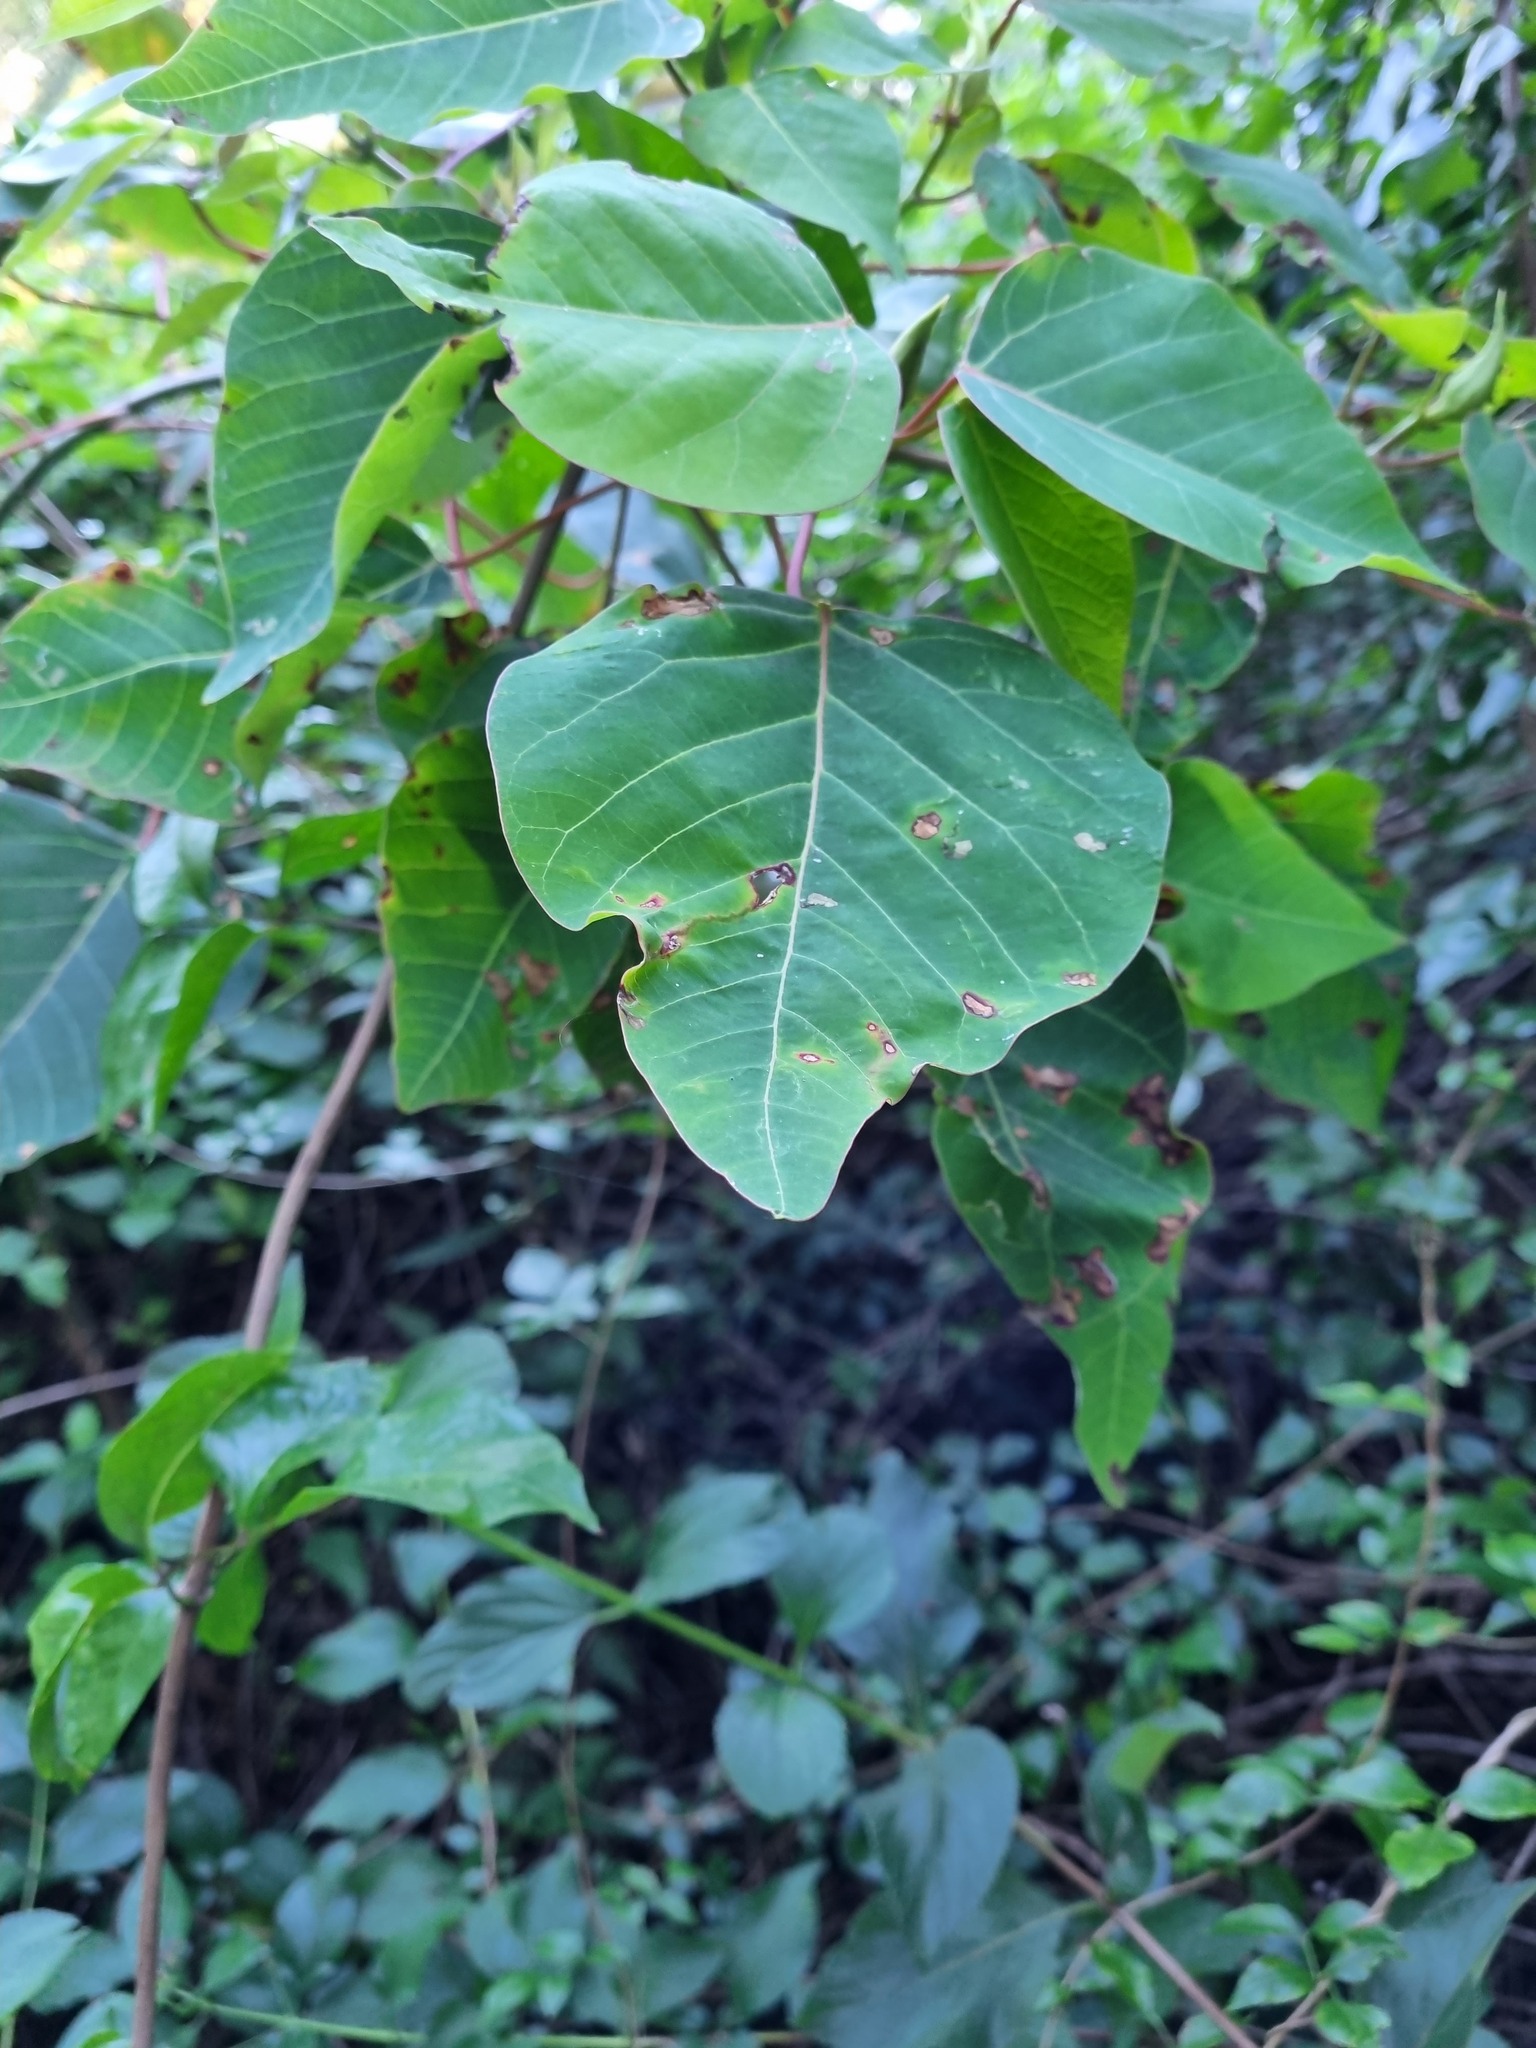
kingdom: Plantae
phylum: Tracheophyta
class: Magnoliopsida
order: Malpighiales
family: Euphorbiaceae
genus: Homalanthus
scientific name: Homalanthus populifolius
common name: Queensland poplar
